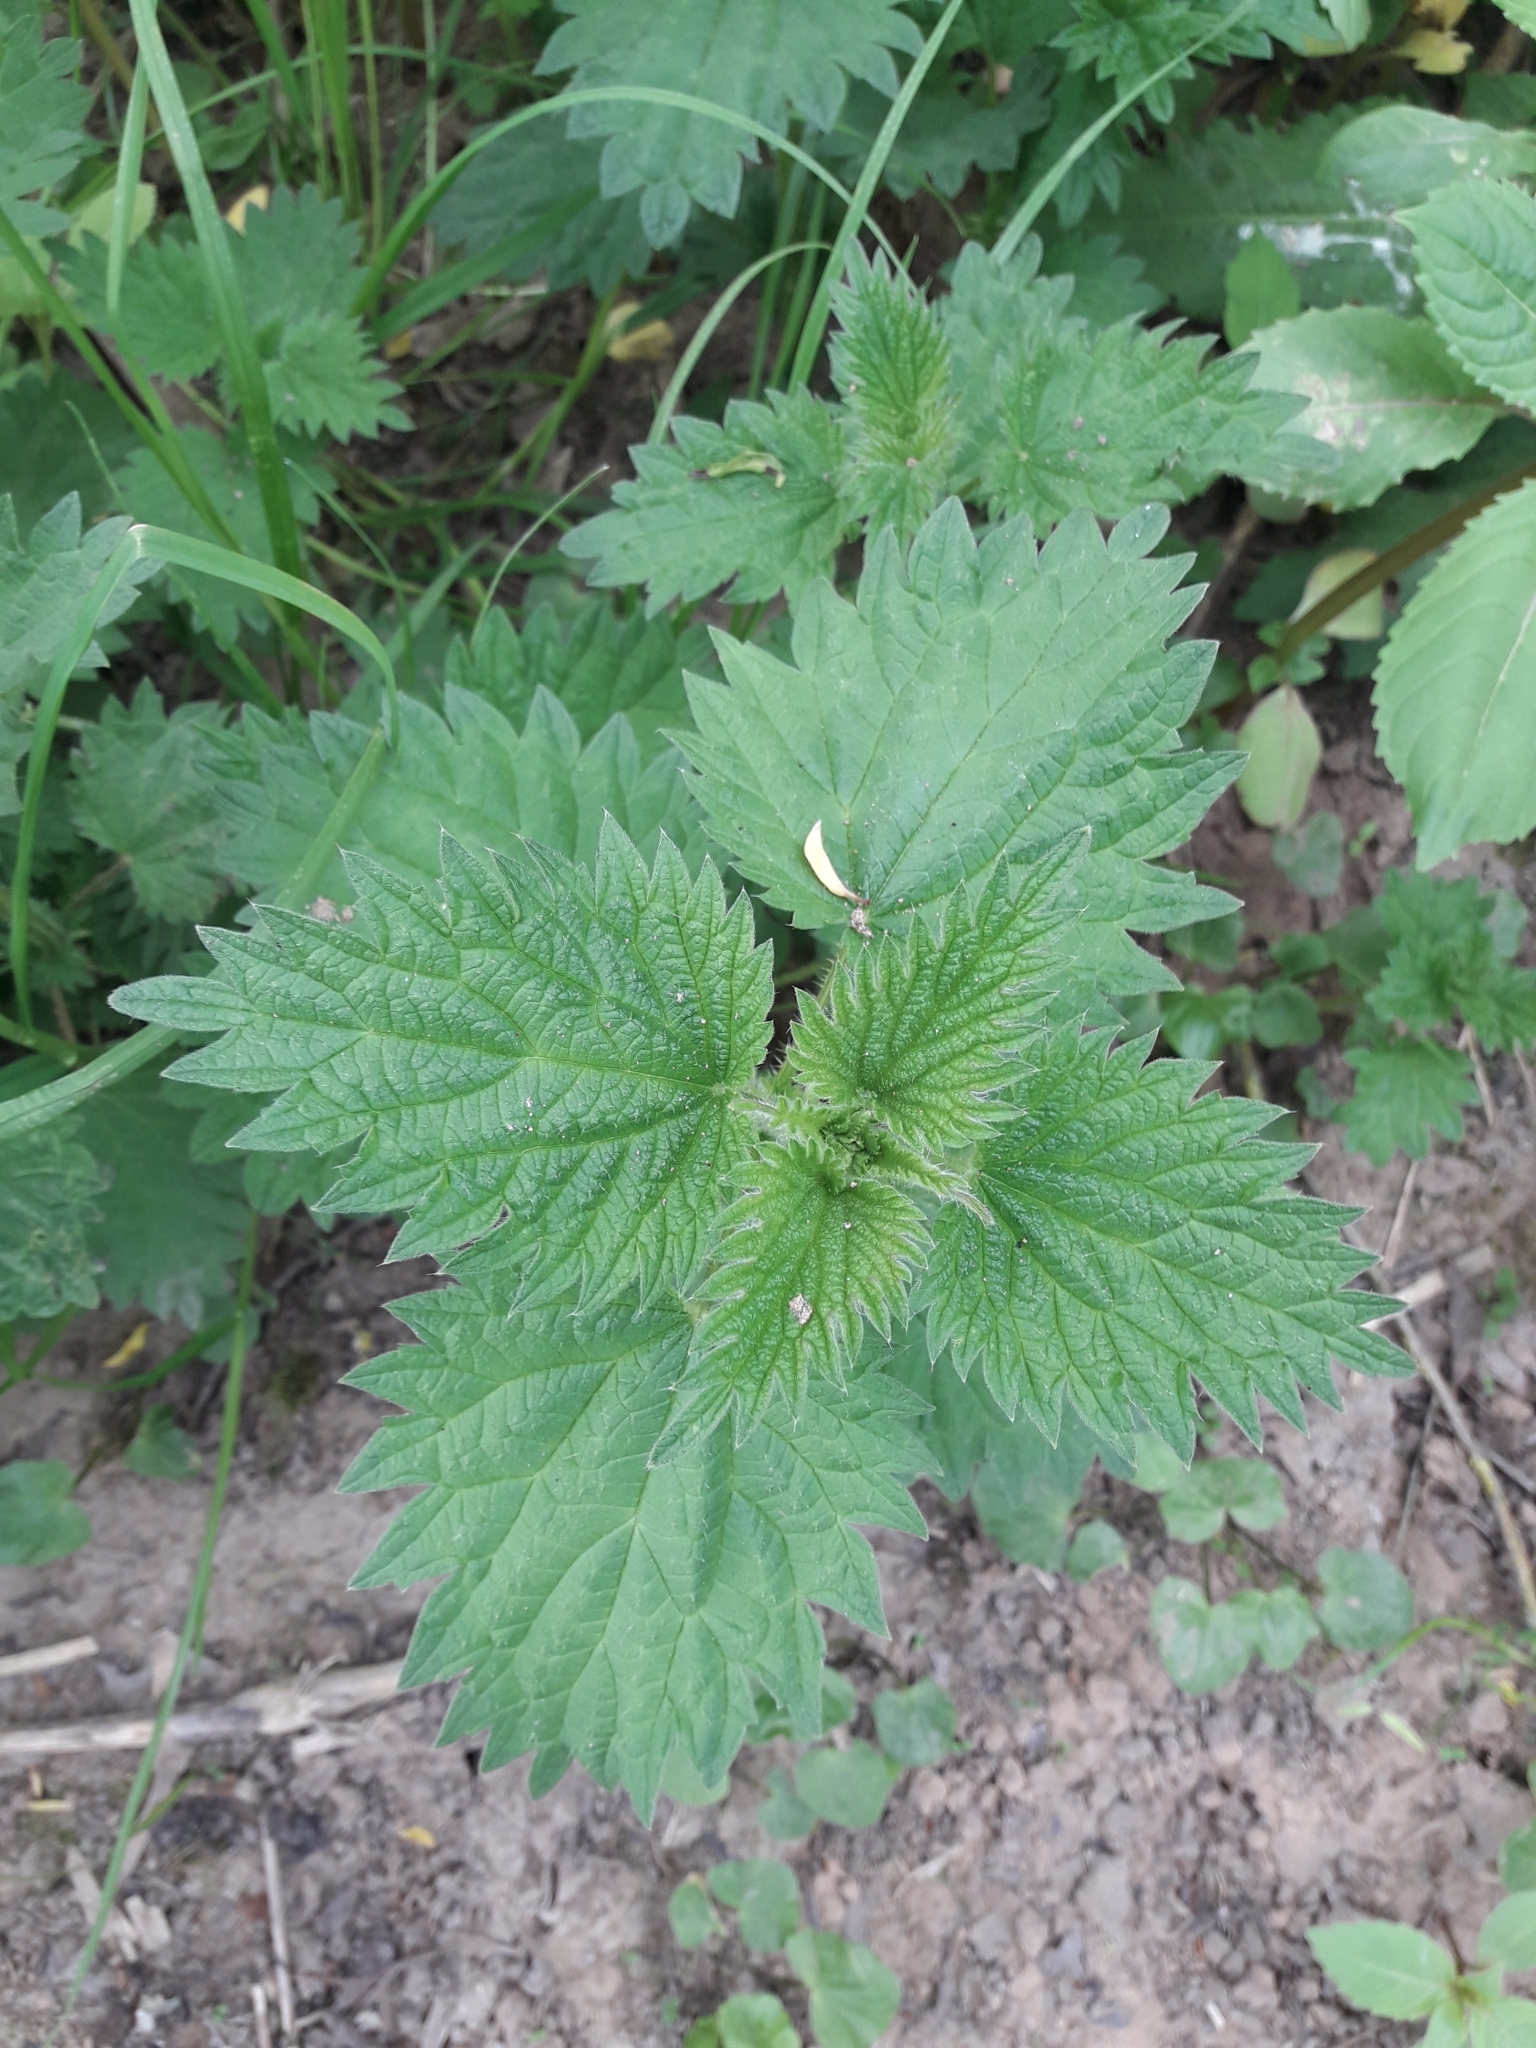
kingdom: Plantae
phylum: Tracheophyta
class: Magnoliopsida
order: Rosales
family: Urticaceae
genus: Urtica
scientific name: Urtica dioica
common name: Common nettle
